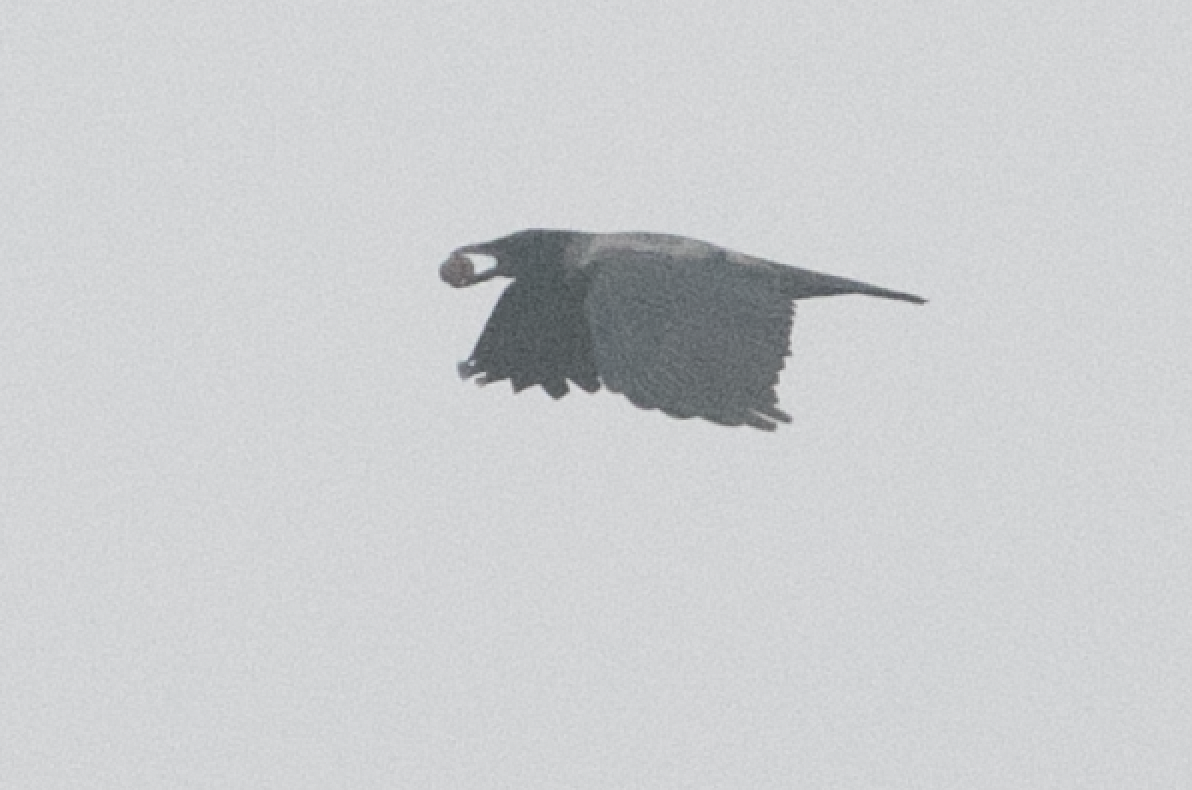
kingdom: Animalia
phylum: Chordata
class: Aves
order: Passeriformes
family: Corvidae
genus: Corvus
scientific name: Corvus cornix
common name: Hooded crow
